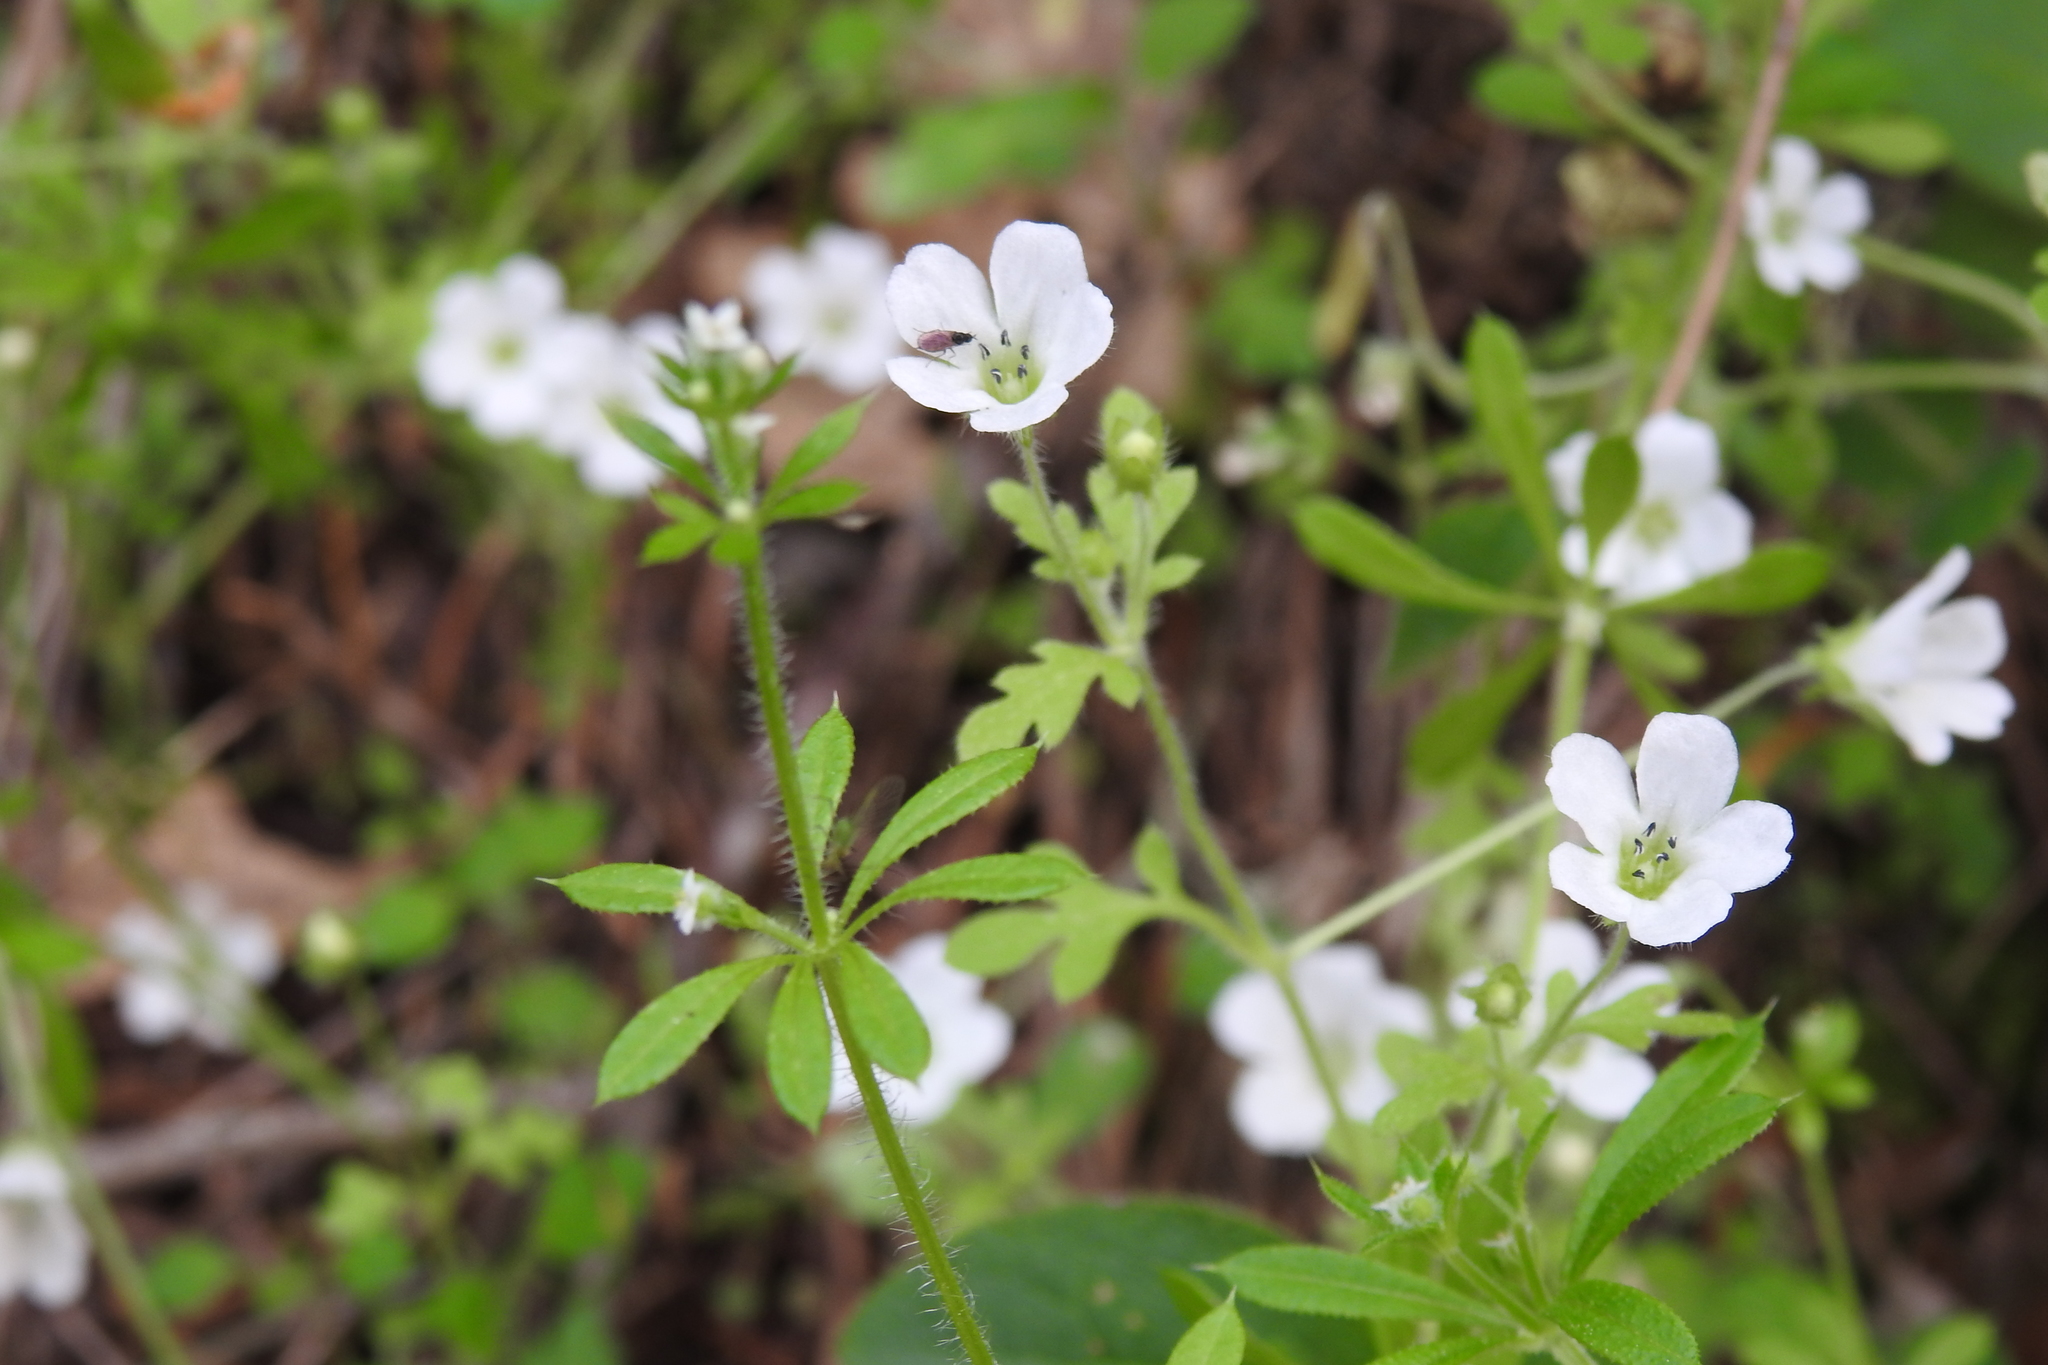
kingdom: Plantae
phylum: Tracheophyta
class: Magnoliopsida
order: Boraginales
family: Hydrophyllaceae
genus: Nemophila
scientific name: Nemophila heterophylla
